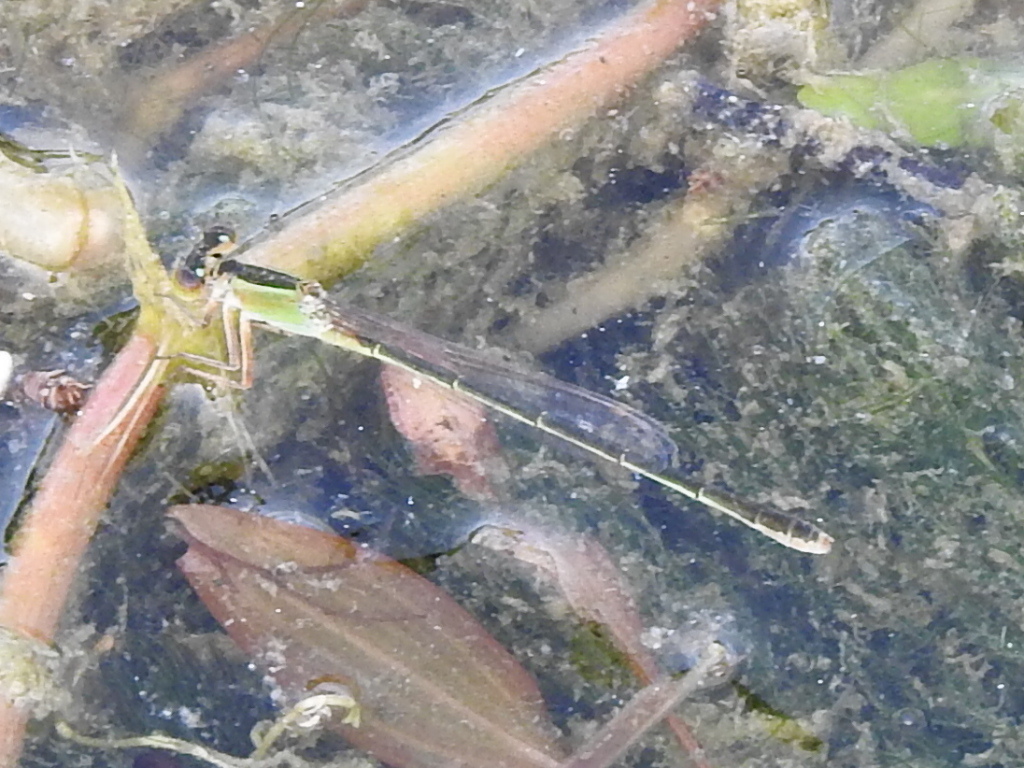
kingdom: Animalia
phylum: Arthropoda
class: Insecta
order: Odonata
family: Coenagrionidae
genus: Ischnura
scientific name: Ischnura ramburii
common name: Rambur's forktail
